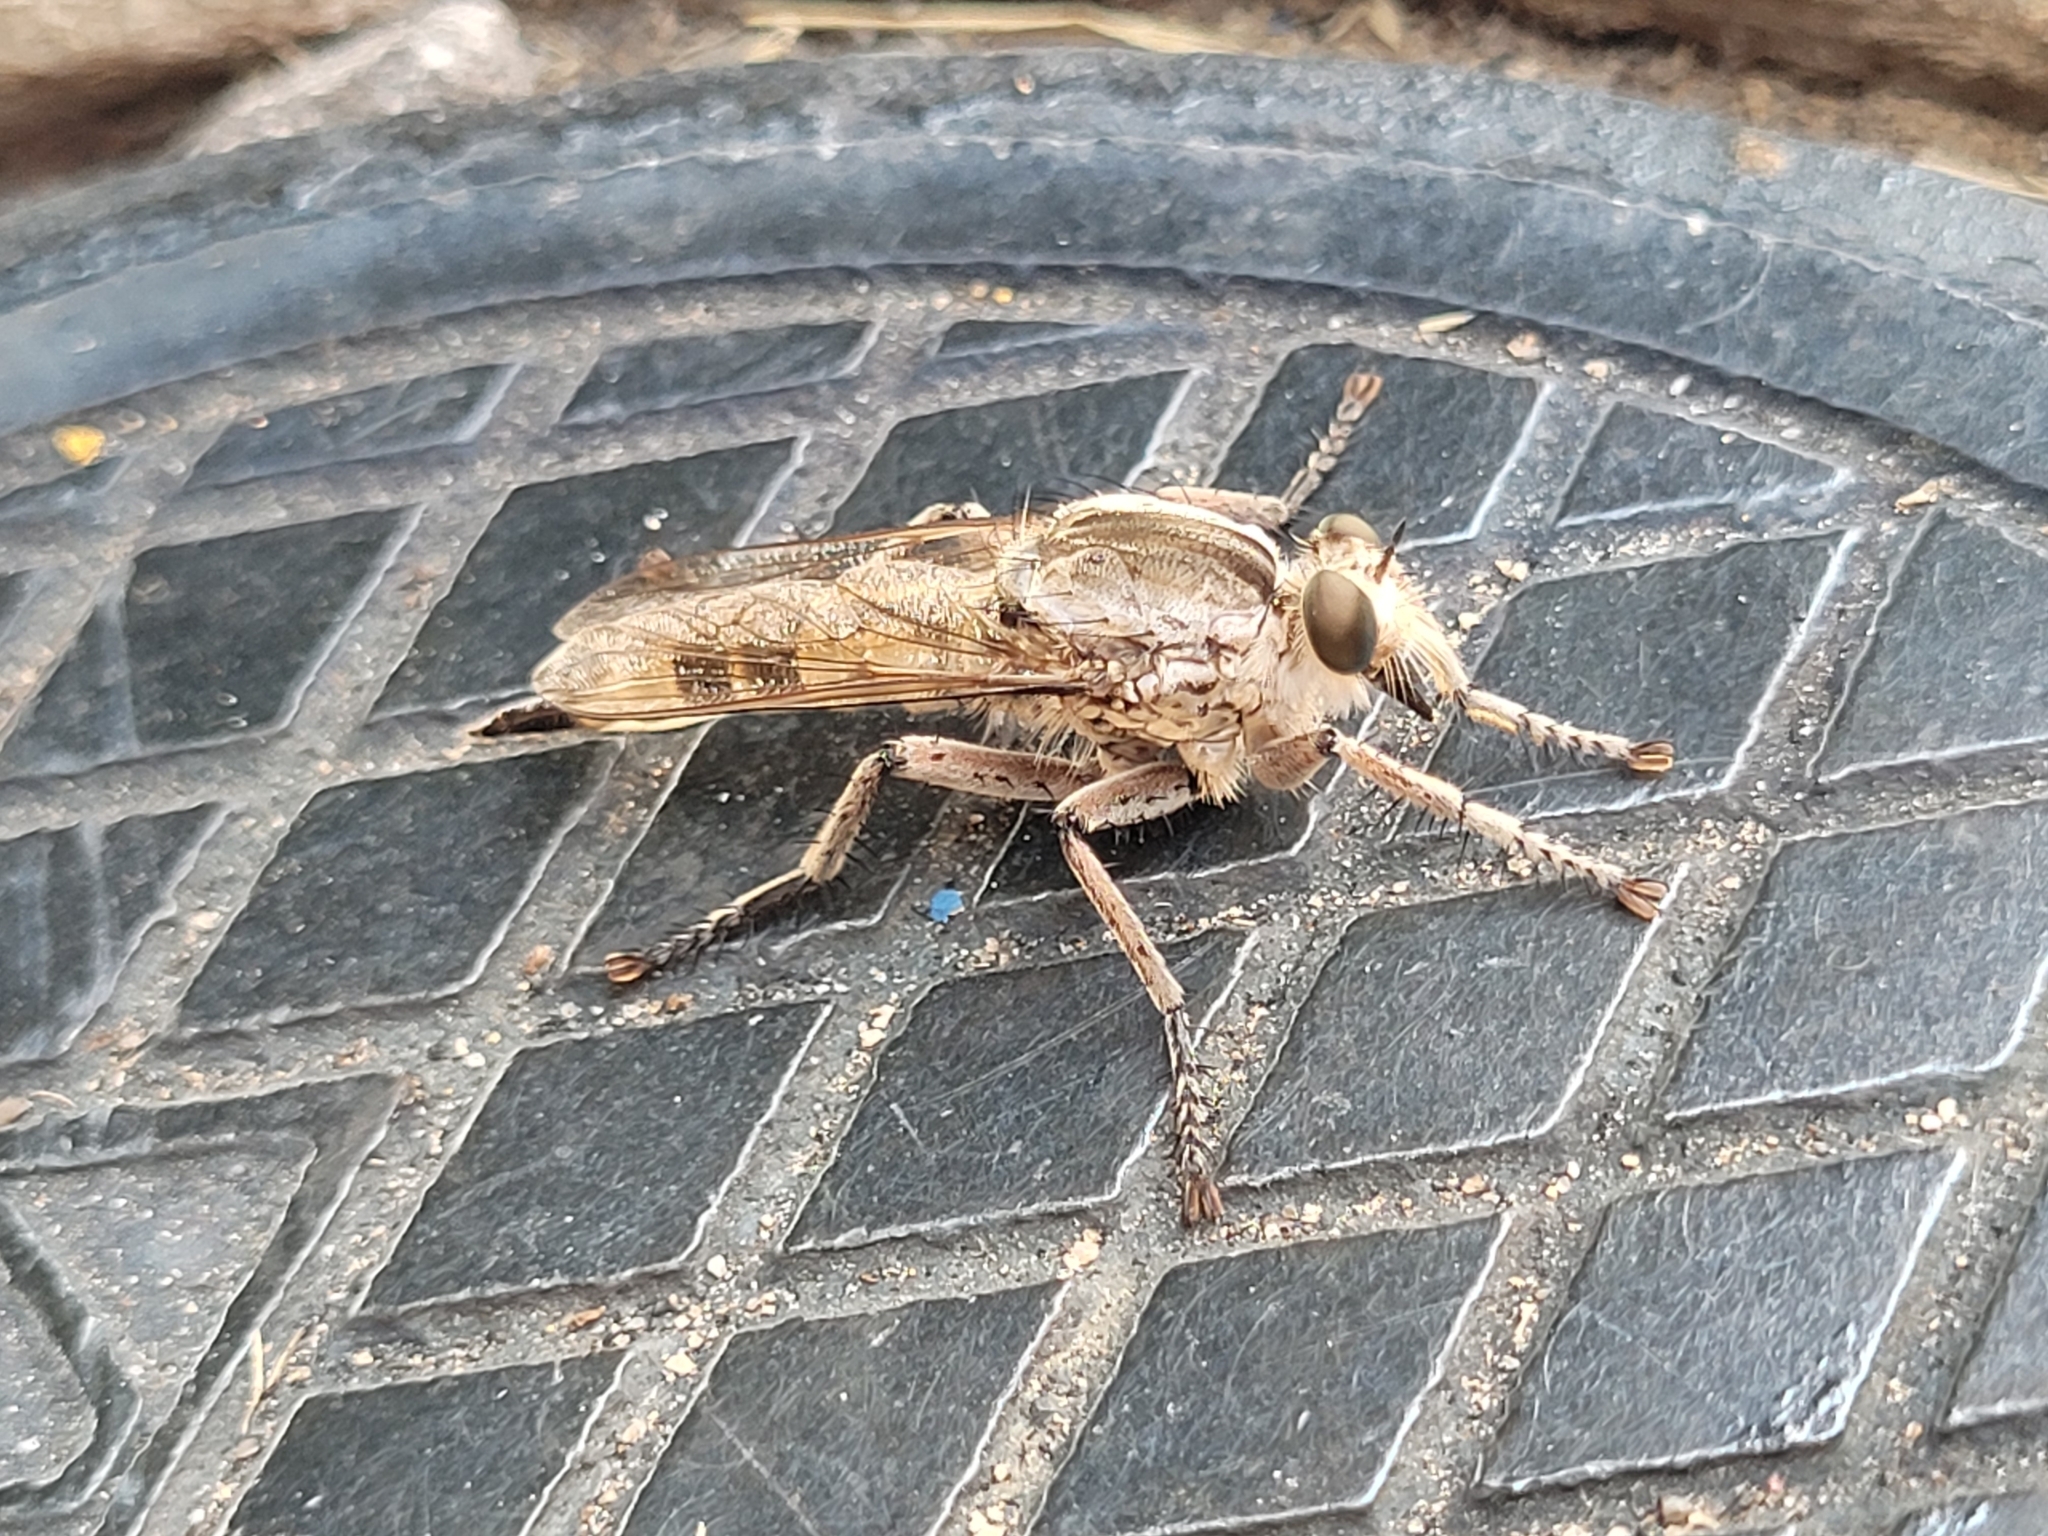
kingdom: Animalia
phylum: Arthropoda
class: Insecta
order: Diptera
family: Asilidae
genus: Triorla
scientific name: Triorla interrupta
